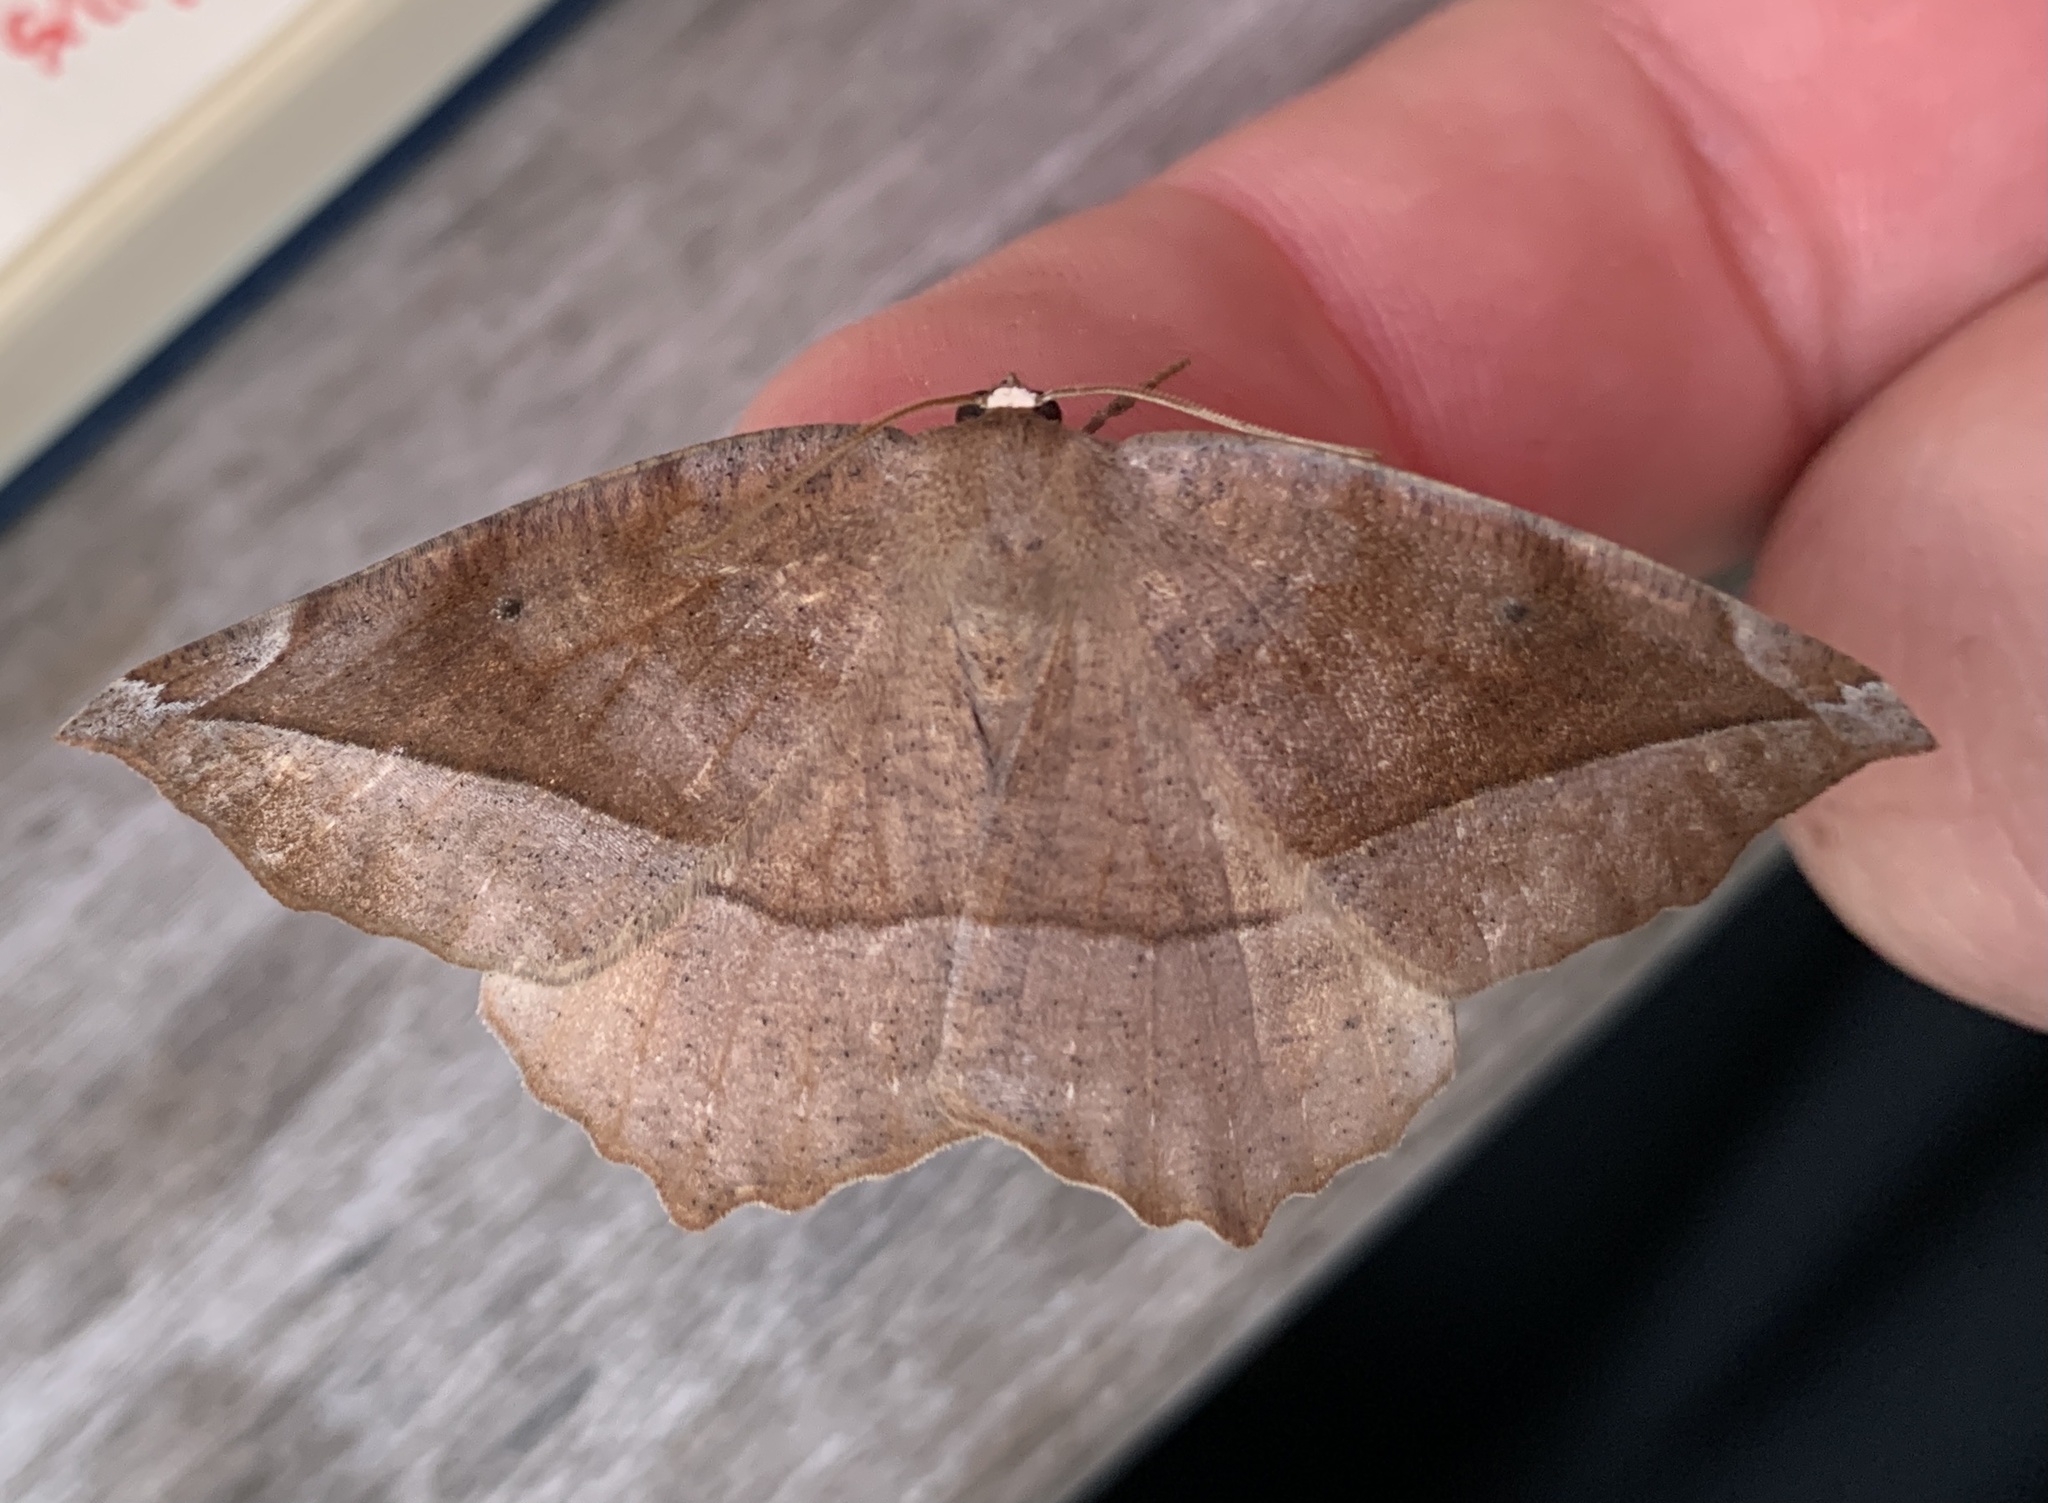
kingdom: Animalia
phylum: Arthropoda
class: Insecta
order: Lepidoptera
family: Geometridae
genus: Eutrapela
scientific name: Eutrapela clemataria
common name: Curved-toothed geometer
